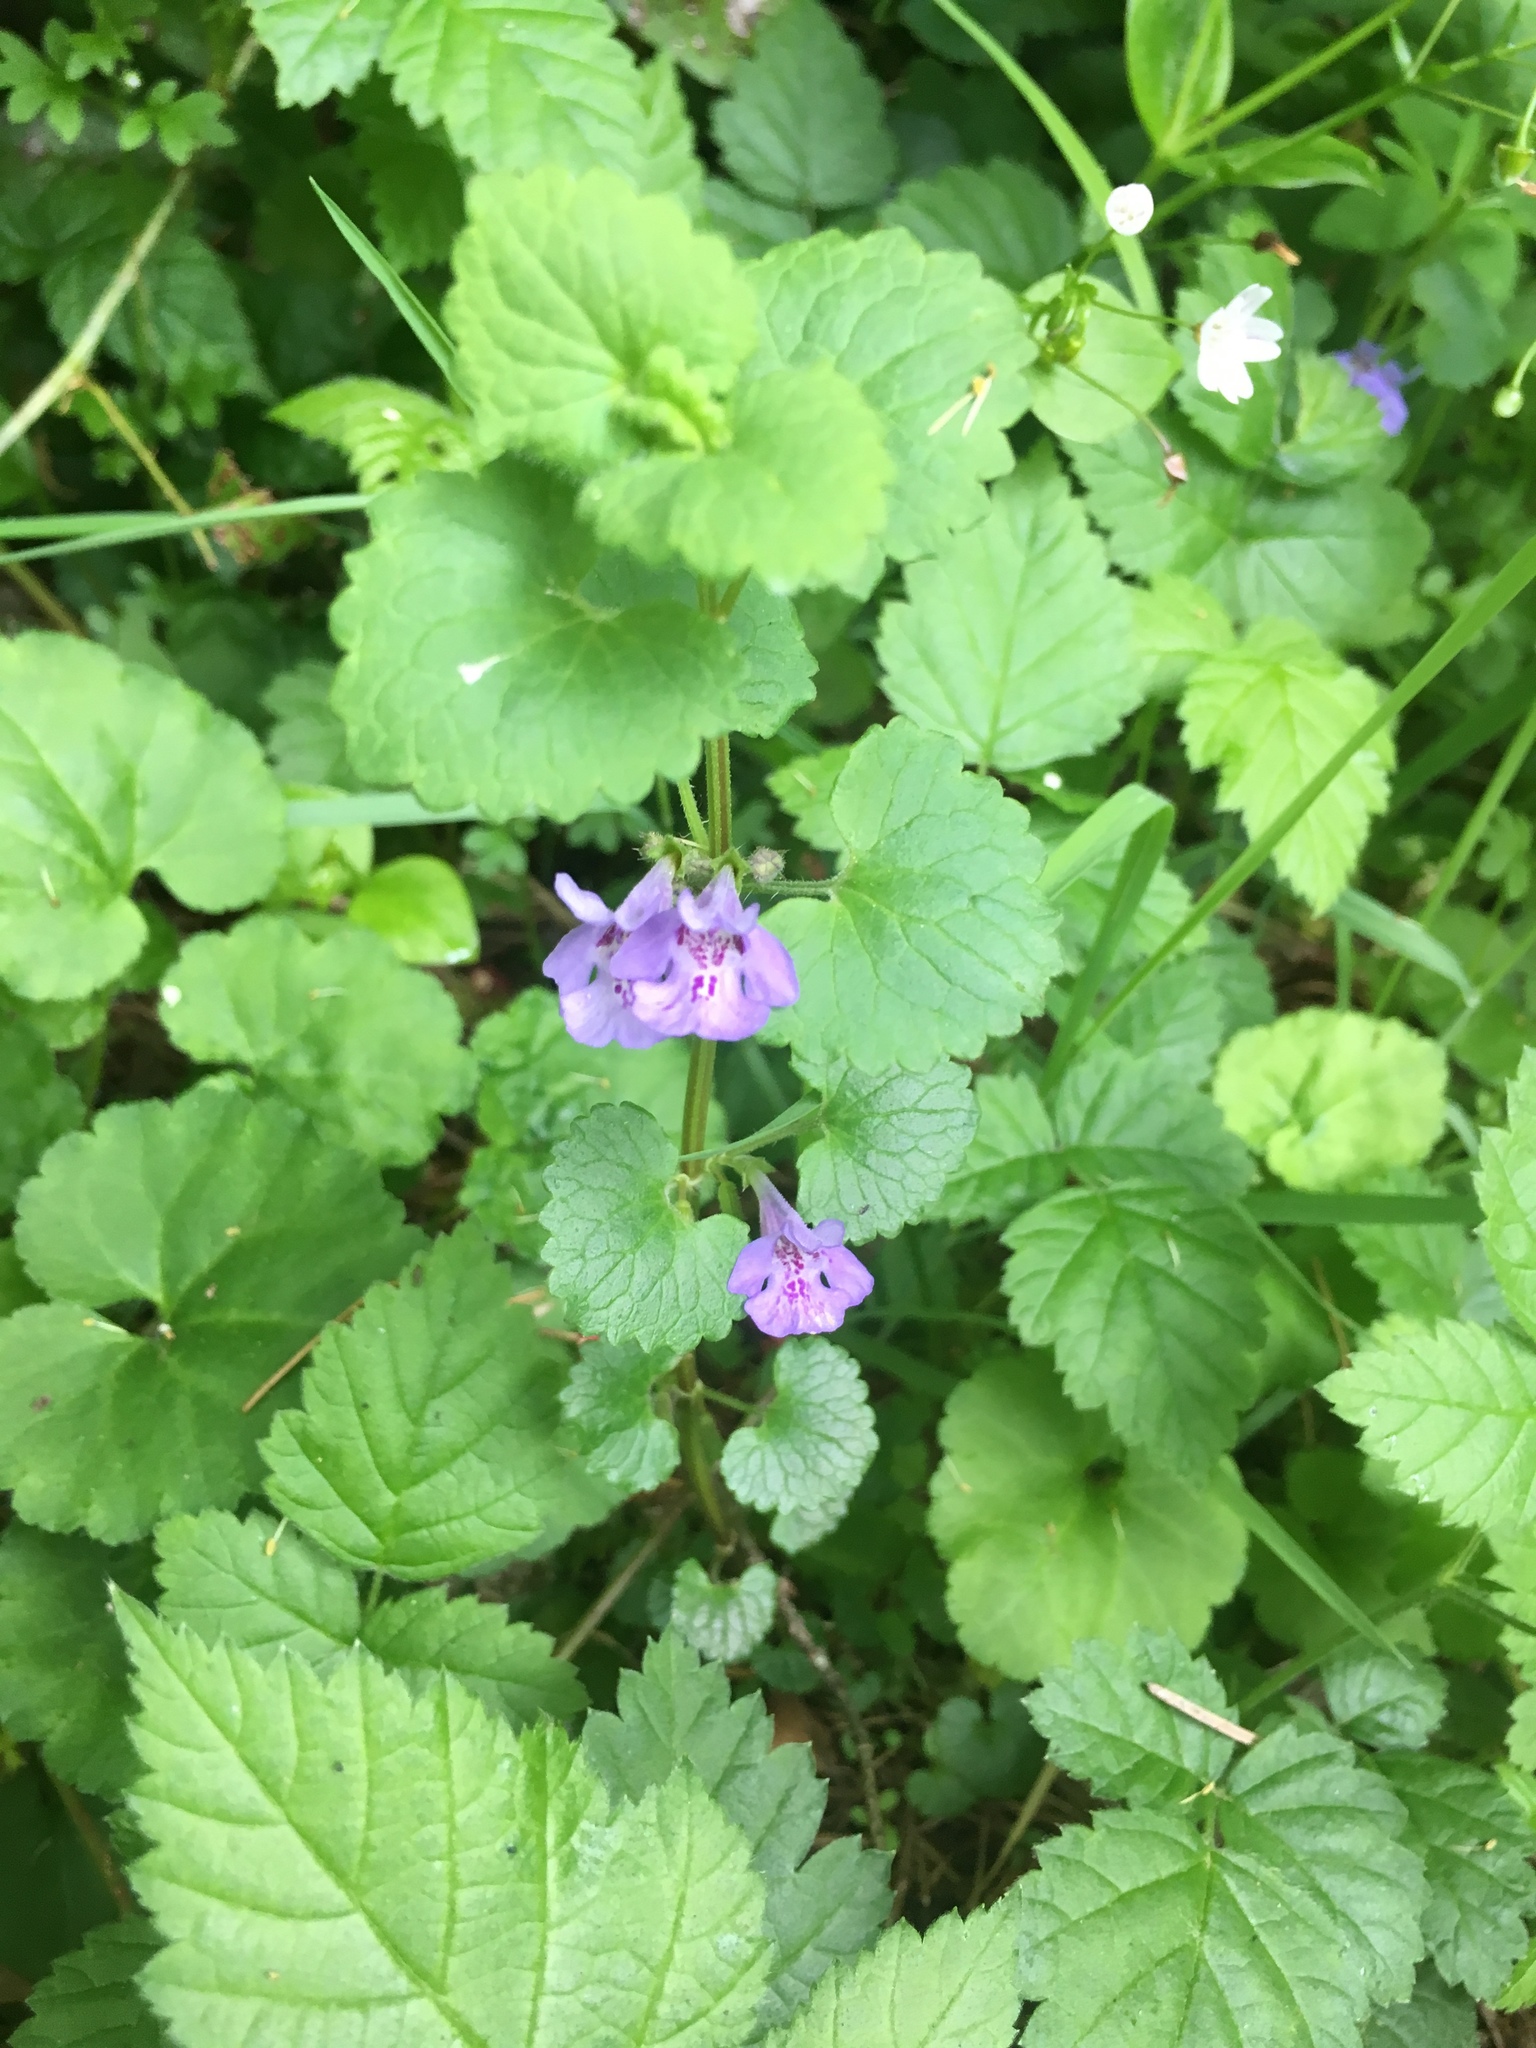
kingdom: Plantae
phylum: Tracheophyta
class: Magnoliopsida
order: Lamiales
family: Lamiaceae
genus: Glechoma
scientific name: Glechoma hederacea
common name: Ground ivy
